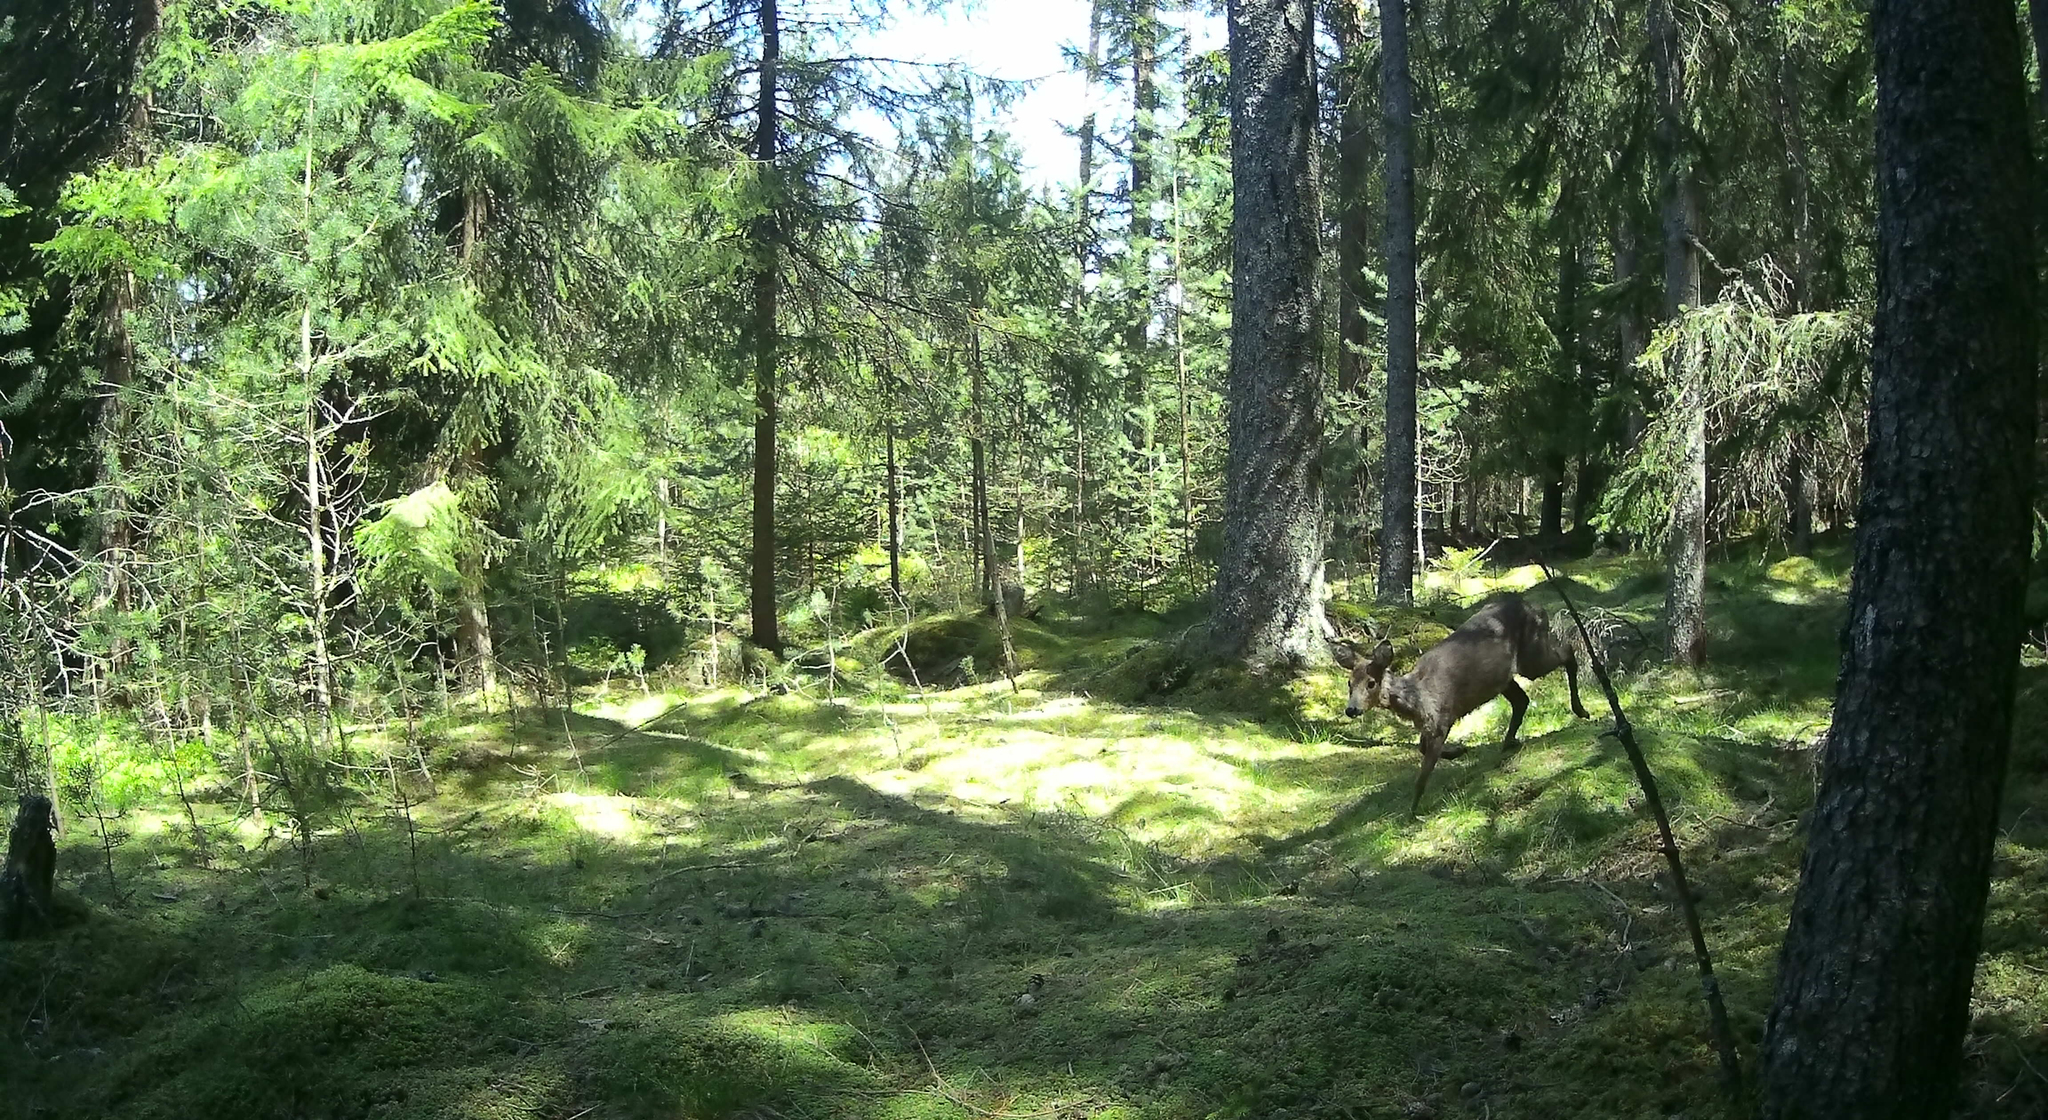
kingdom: Animalia
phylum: Chordata
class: Mammalia
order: Artiodactyla
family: Cervidae
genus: Capreolus
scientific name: Capreolus capreolus
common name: Western roe deer
